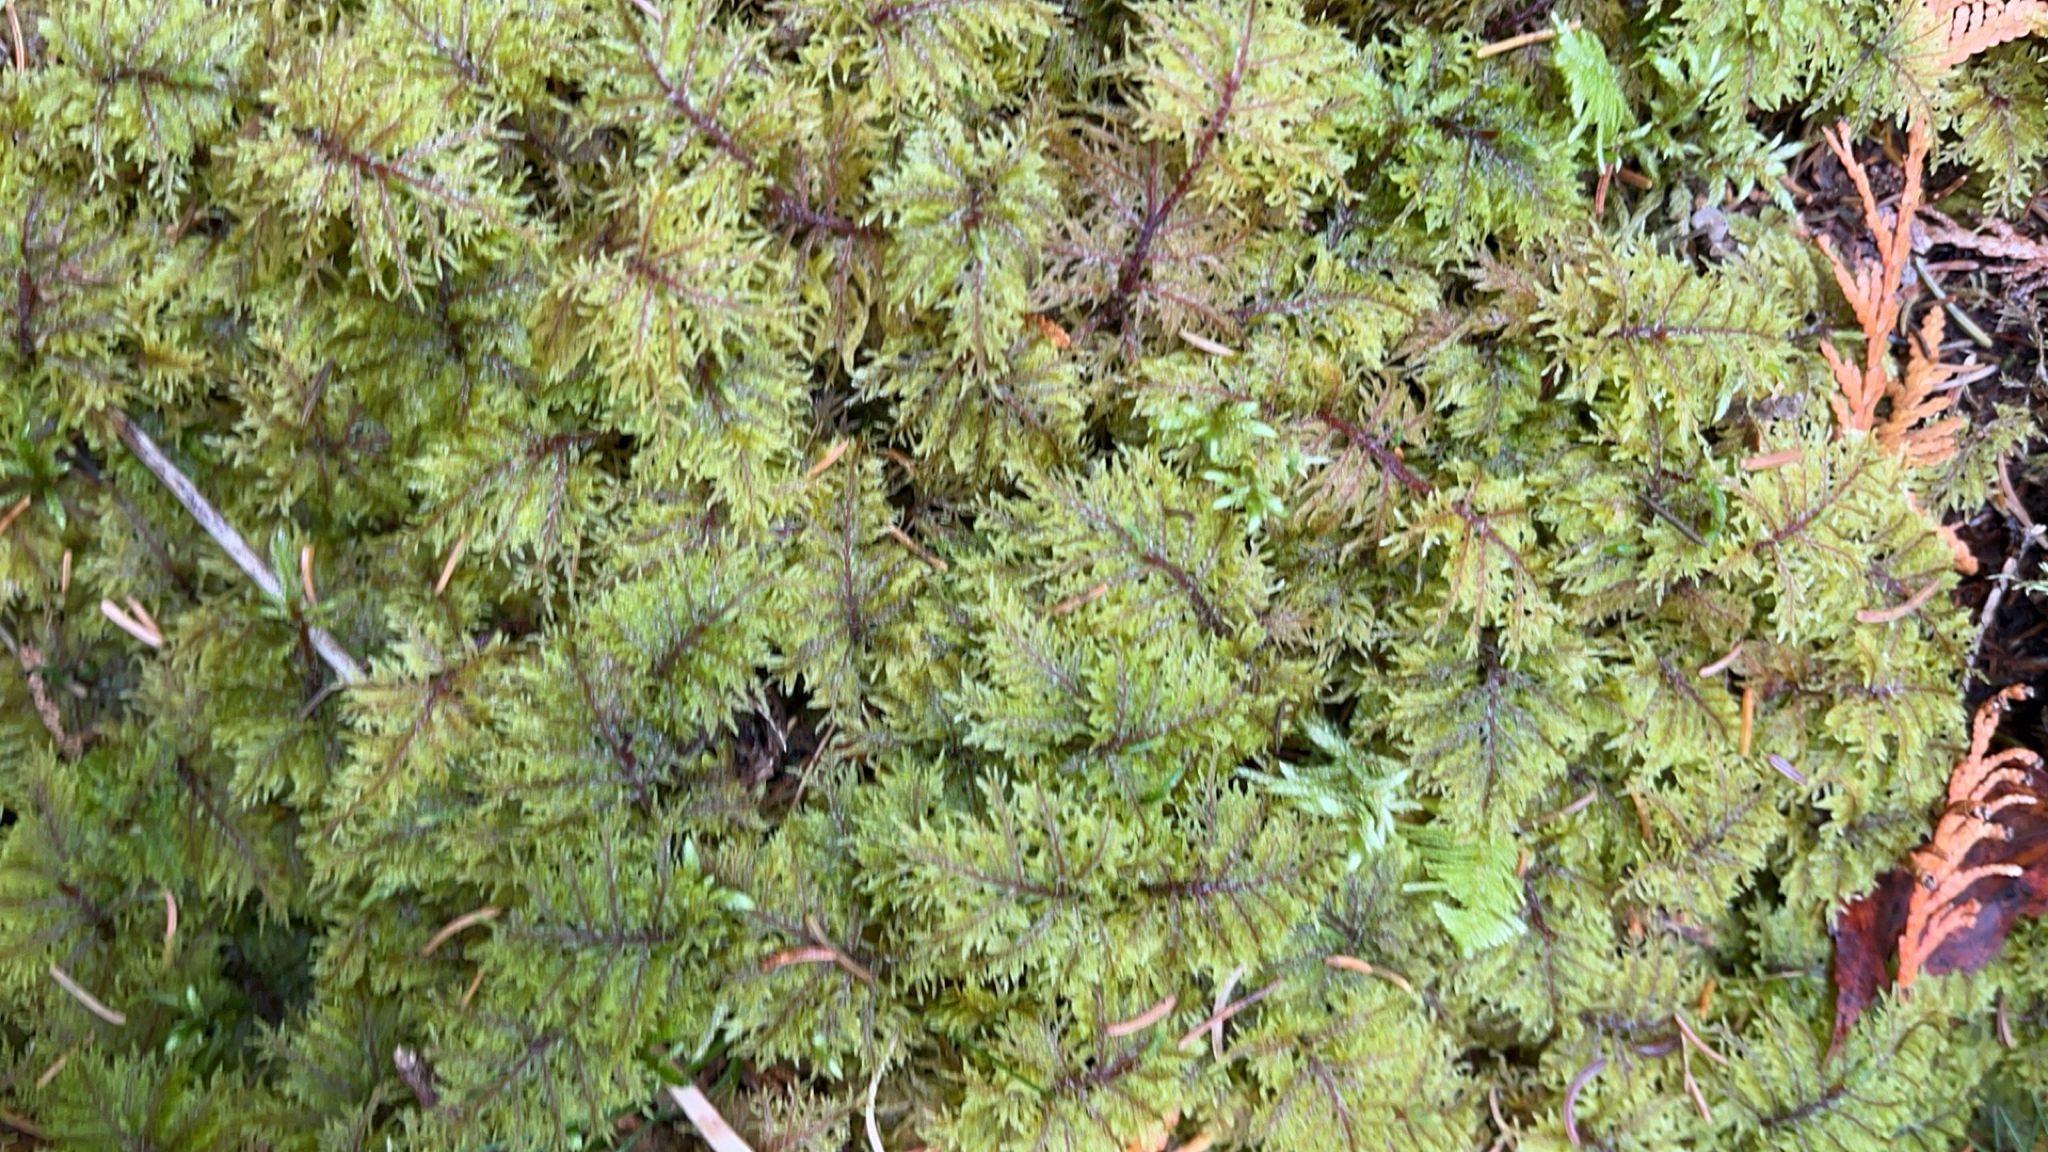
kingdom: Plantae
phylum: Bryophyta
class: Bryopsida
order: Hypnales
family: Hylocomiaceae
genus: Hylocomium
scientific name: Hylocomium splendens
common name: Stairstep moss
